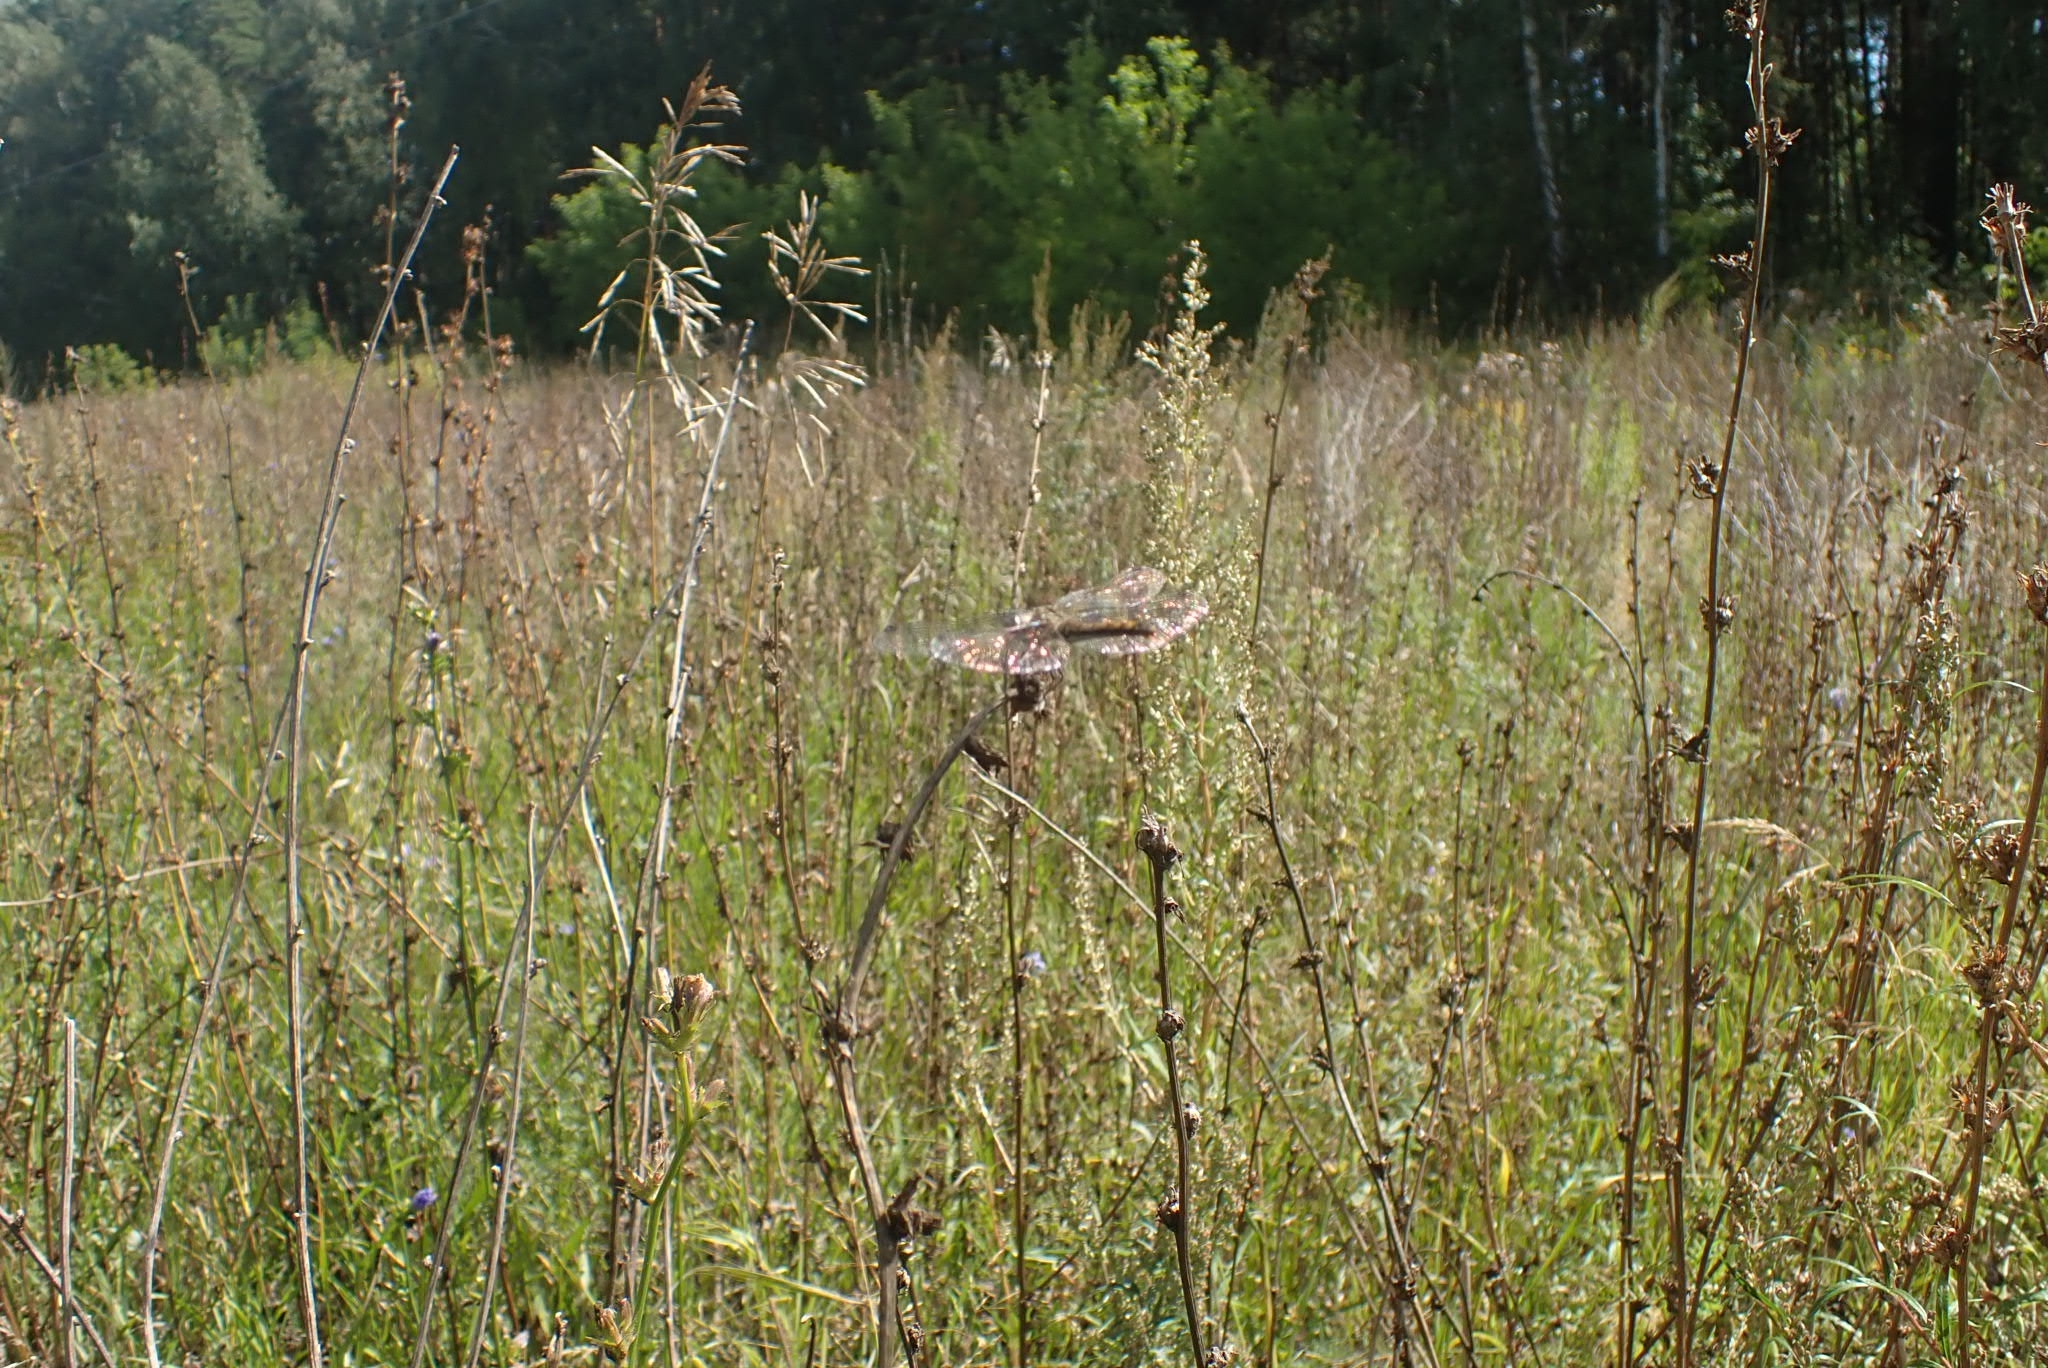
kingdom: Animalia
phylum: Arthropoda
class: Insecta
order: Odonata
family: Libellulidae
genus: Sympetrum
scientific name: Sympetrum danae
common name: Black darter
